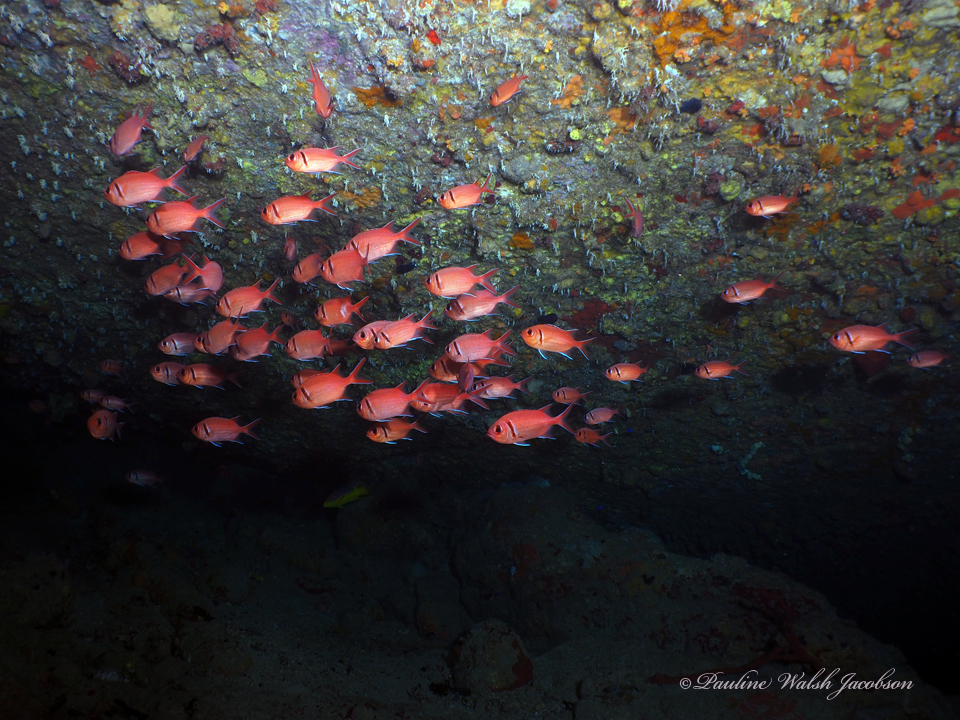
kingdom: Animalia
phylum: Chordata
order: Beryciformes
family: Holocentridae
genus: Myripristis
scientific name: Myripristis jacobus
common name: Blackbar soldierfish
